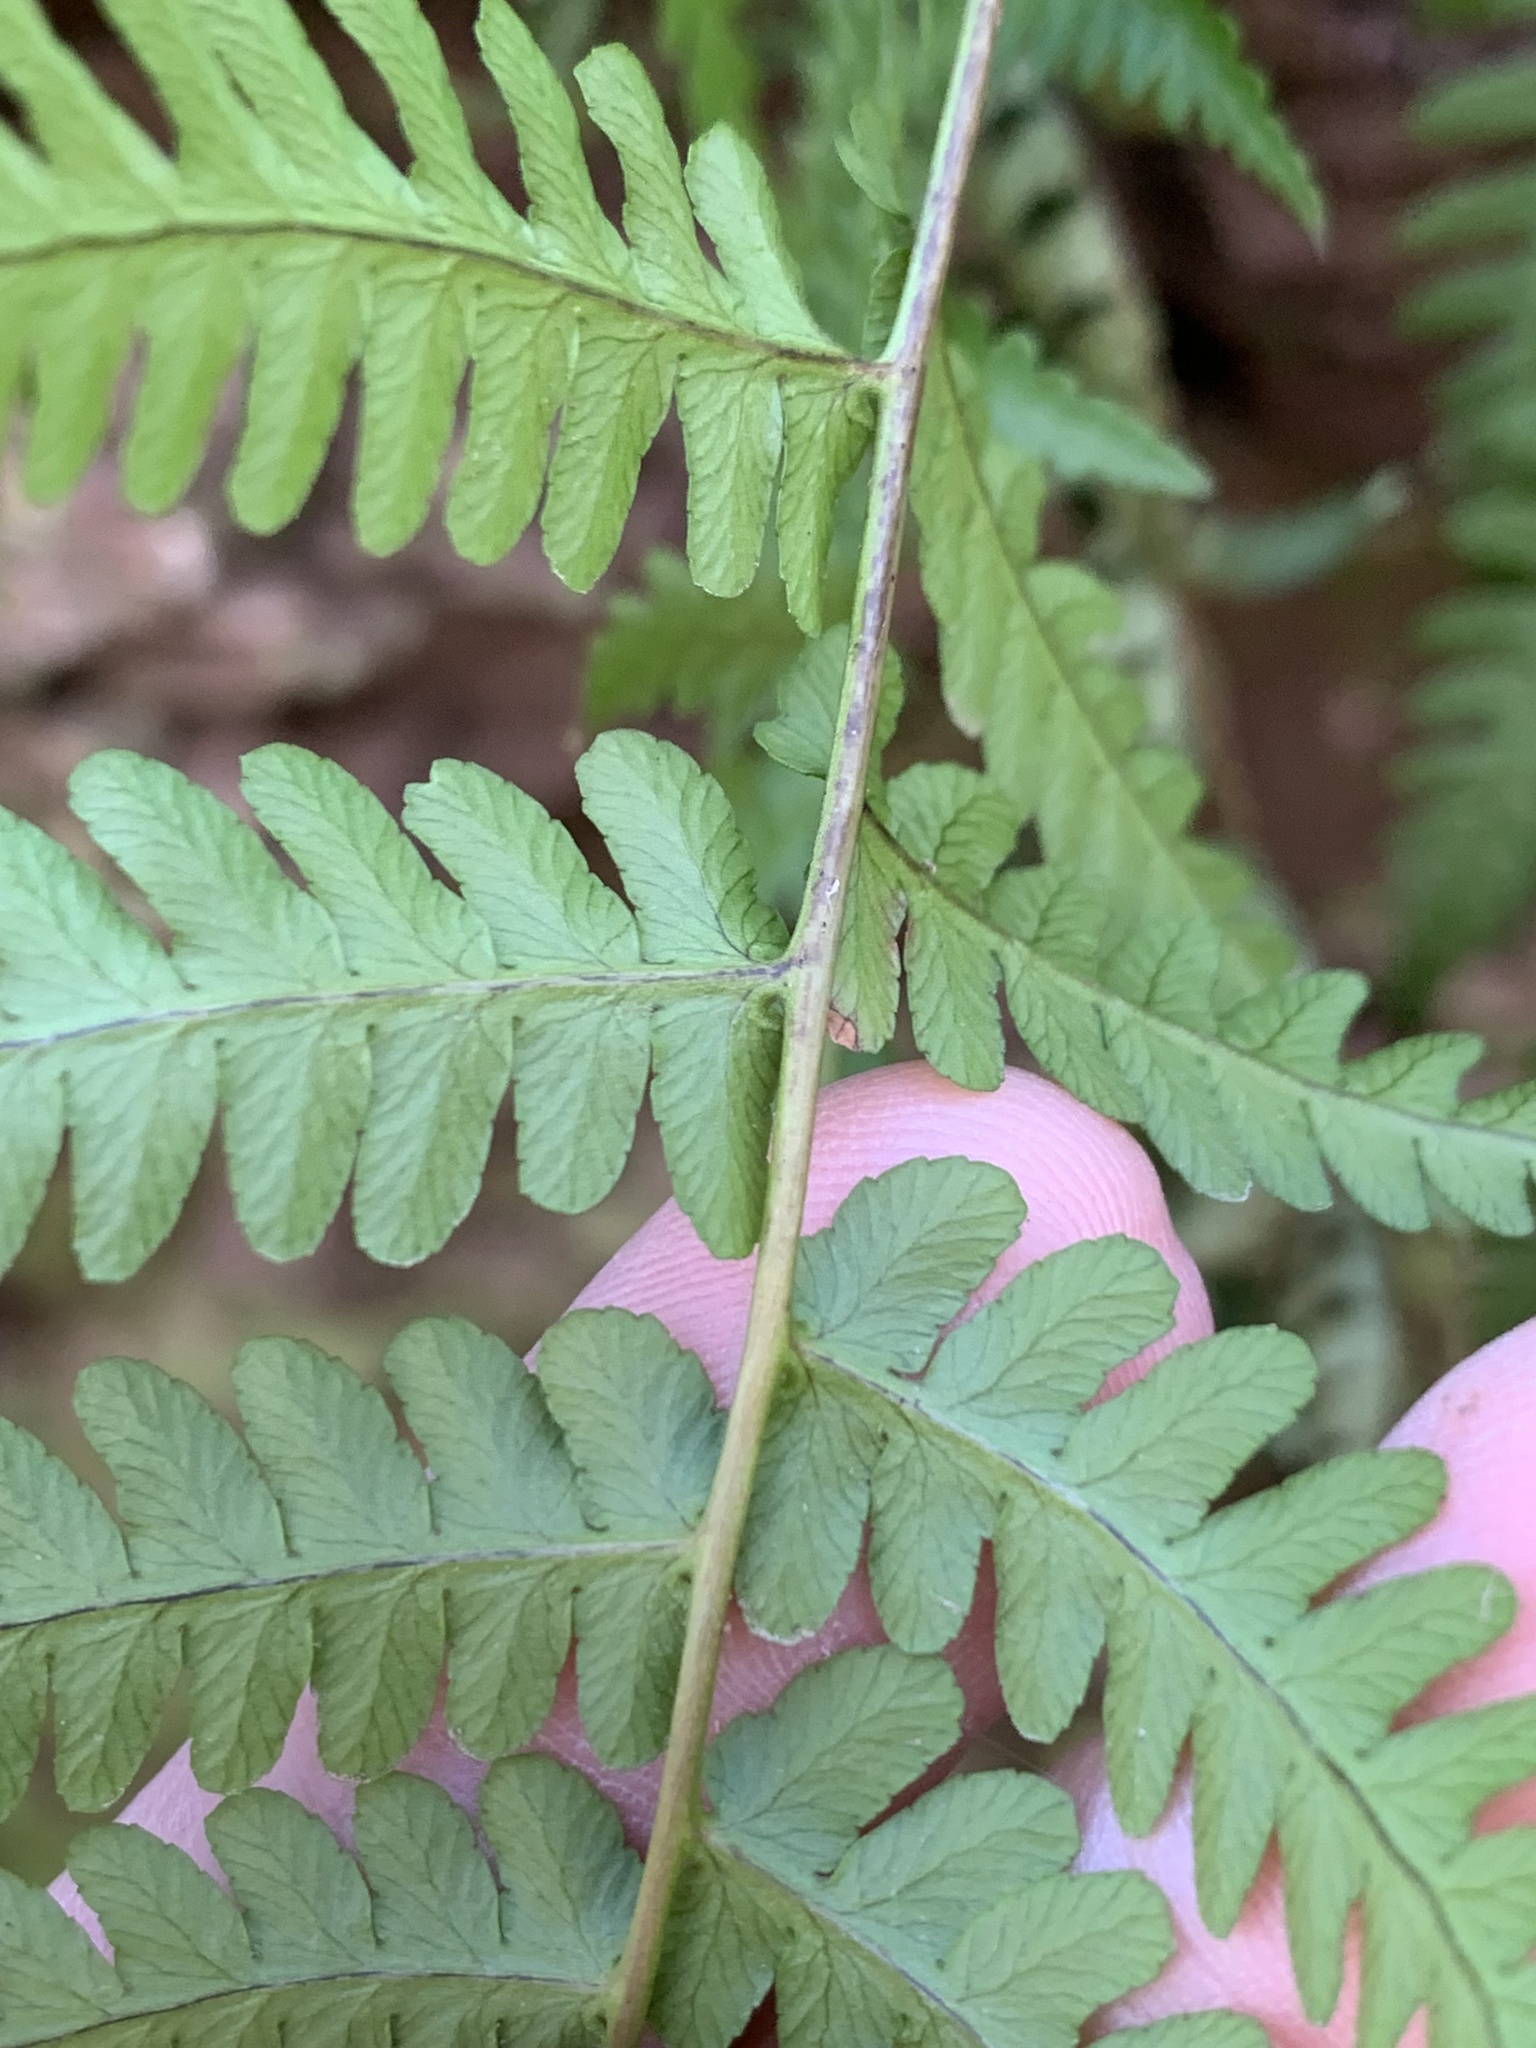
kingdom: Plantae
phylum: Tracheophyta
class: Polypodiopsida
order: Polypodiales
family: Dryopteridaceae
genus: Dryopteris
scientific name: Dryopteris marginalis
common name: Marginal wood fern
